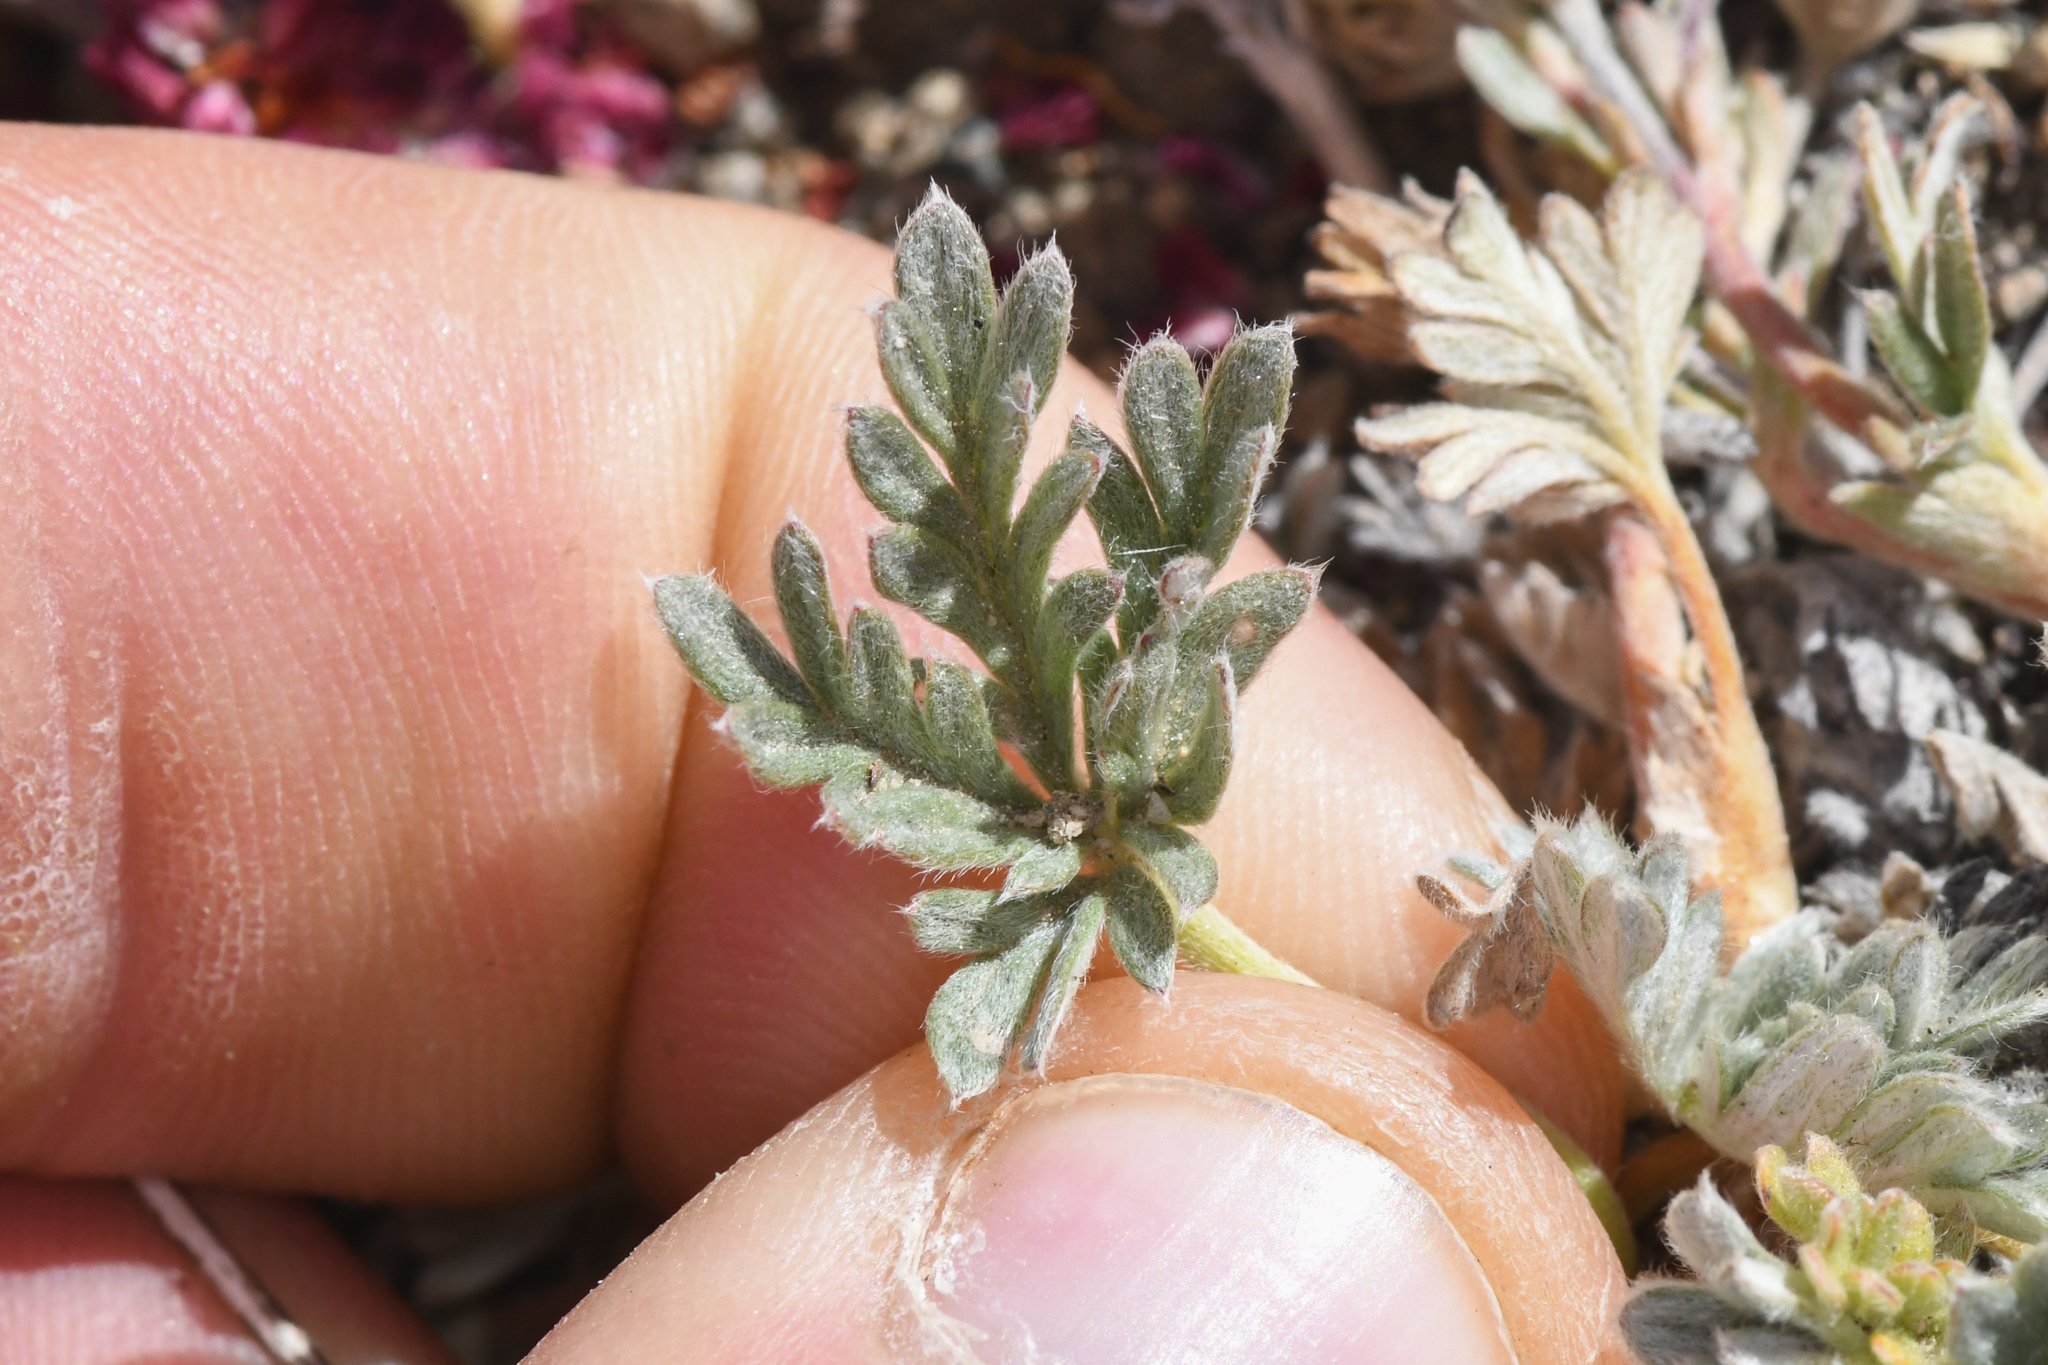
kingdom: Plantae
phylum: Tracheophyta
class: Magnoliopsida
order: Rosales
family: Rosaceae
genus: Potentilla
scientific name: Potentilla pseudosericea
